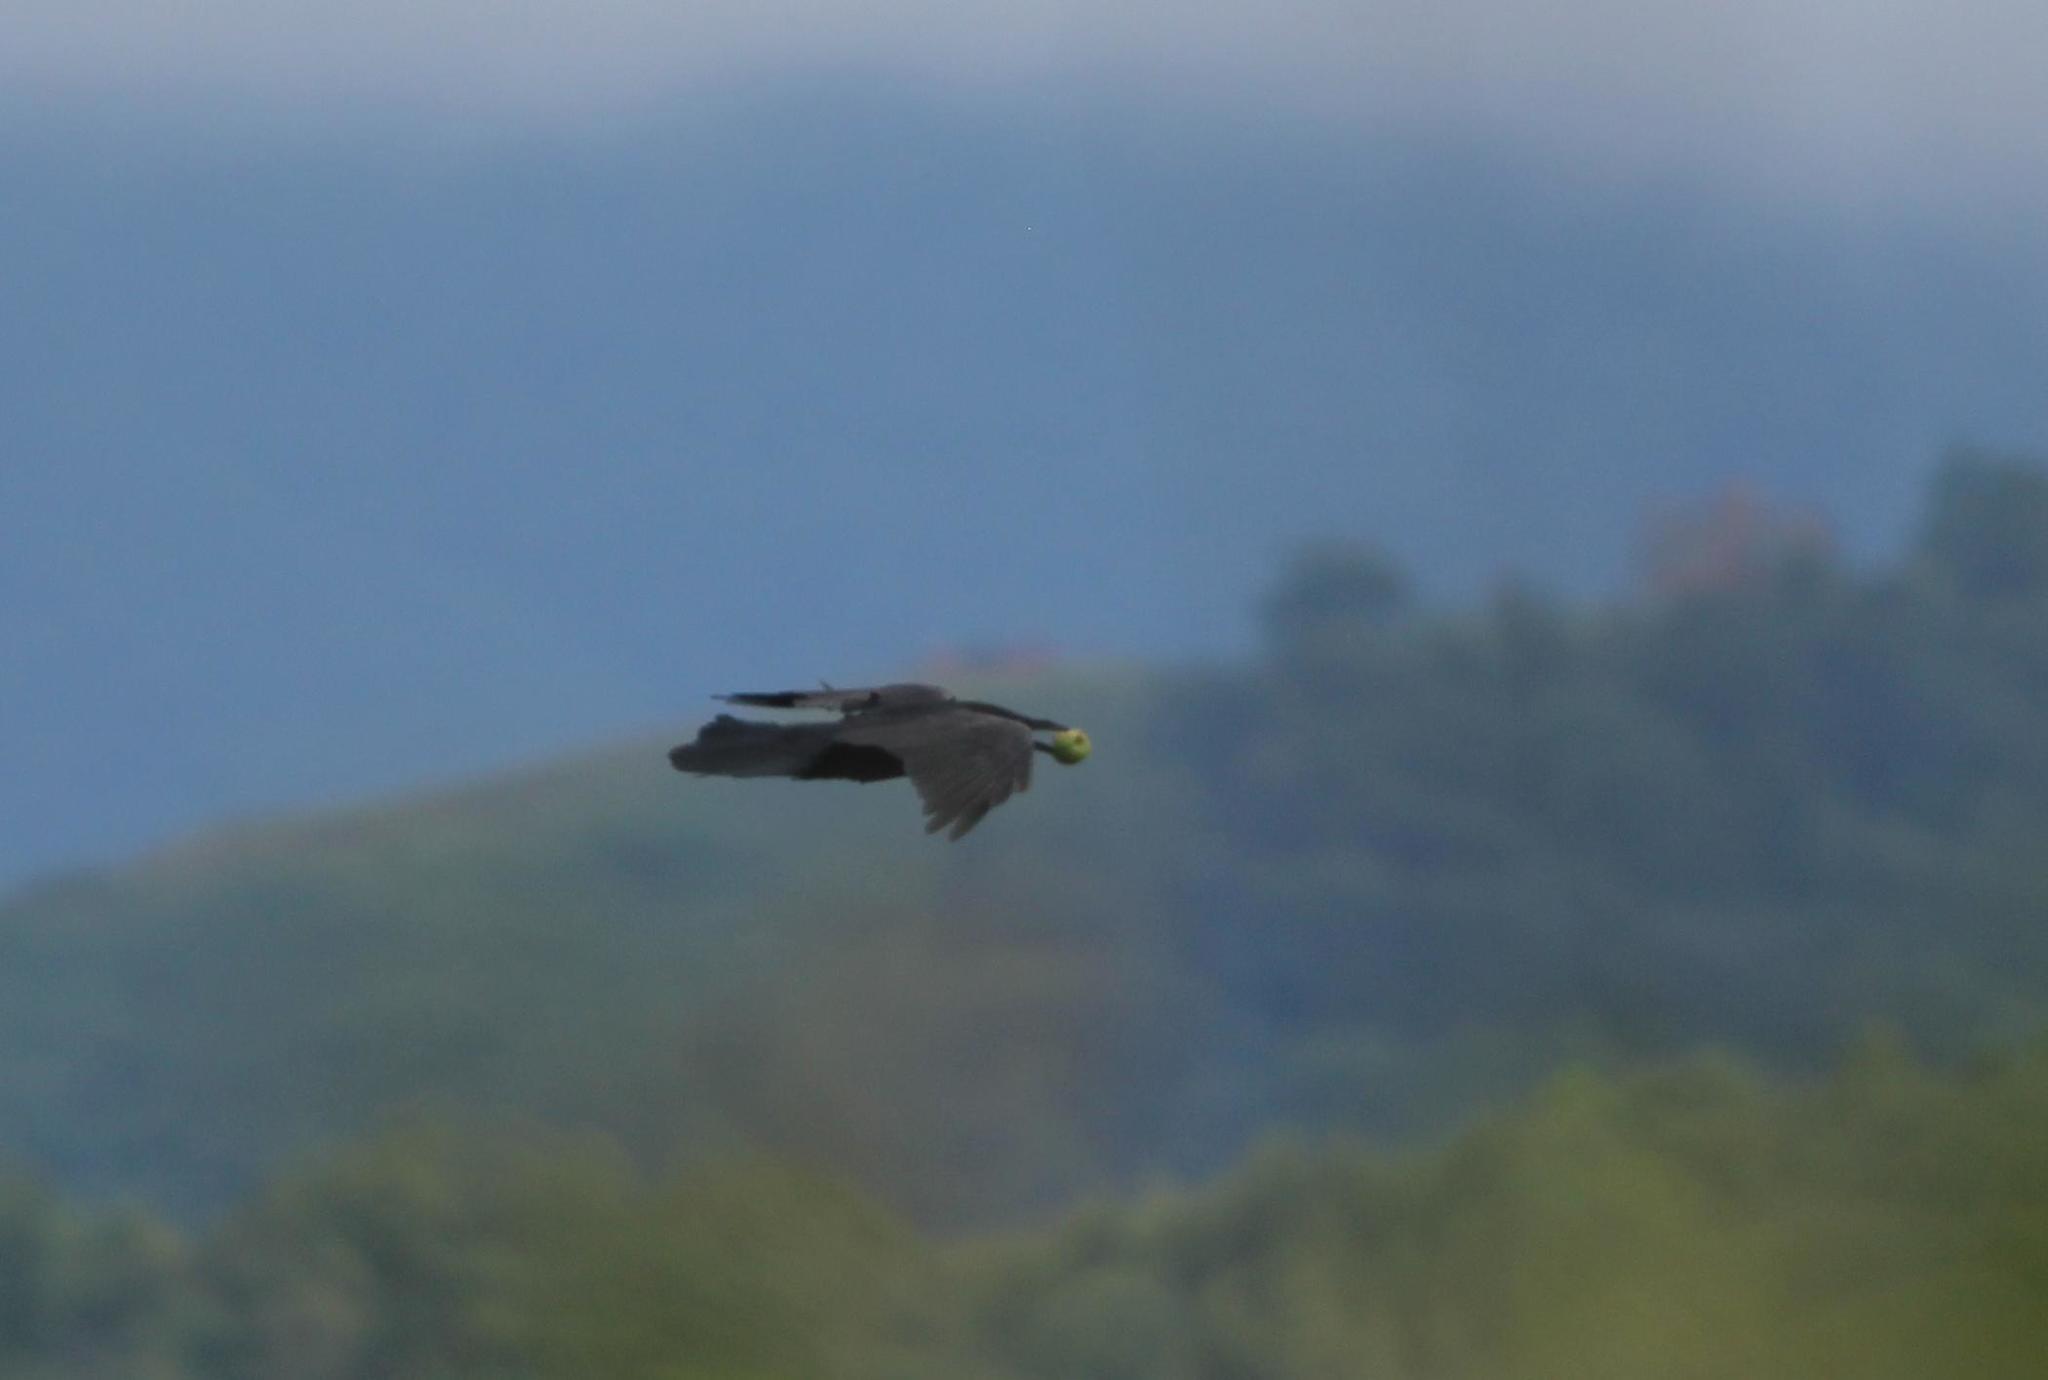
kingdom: Animalia
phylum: Chordata
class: Aves
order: Passeriformes
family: Corvidae
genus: Corvus
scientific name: Corvus corax
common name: Common raven
